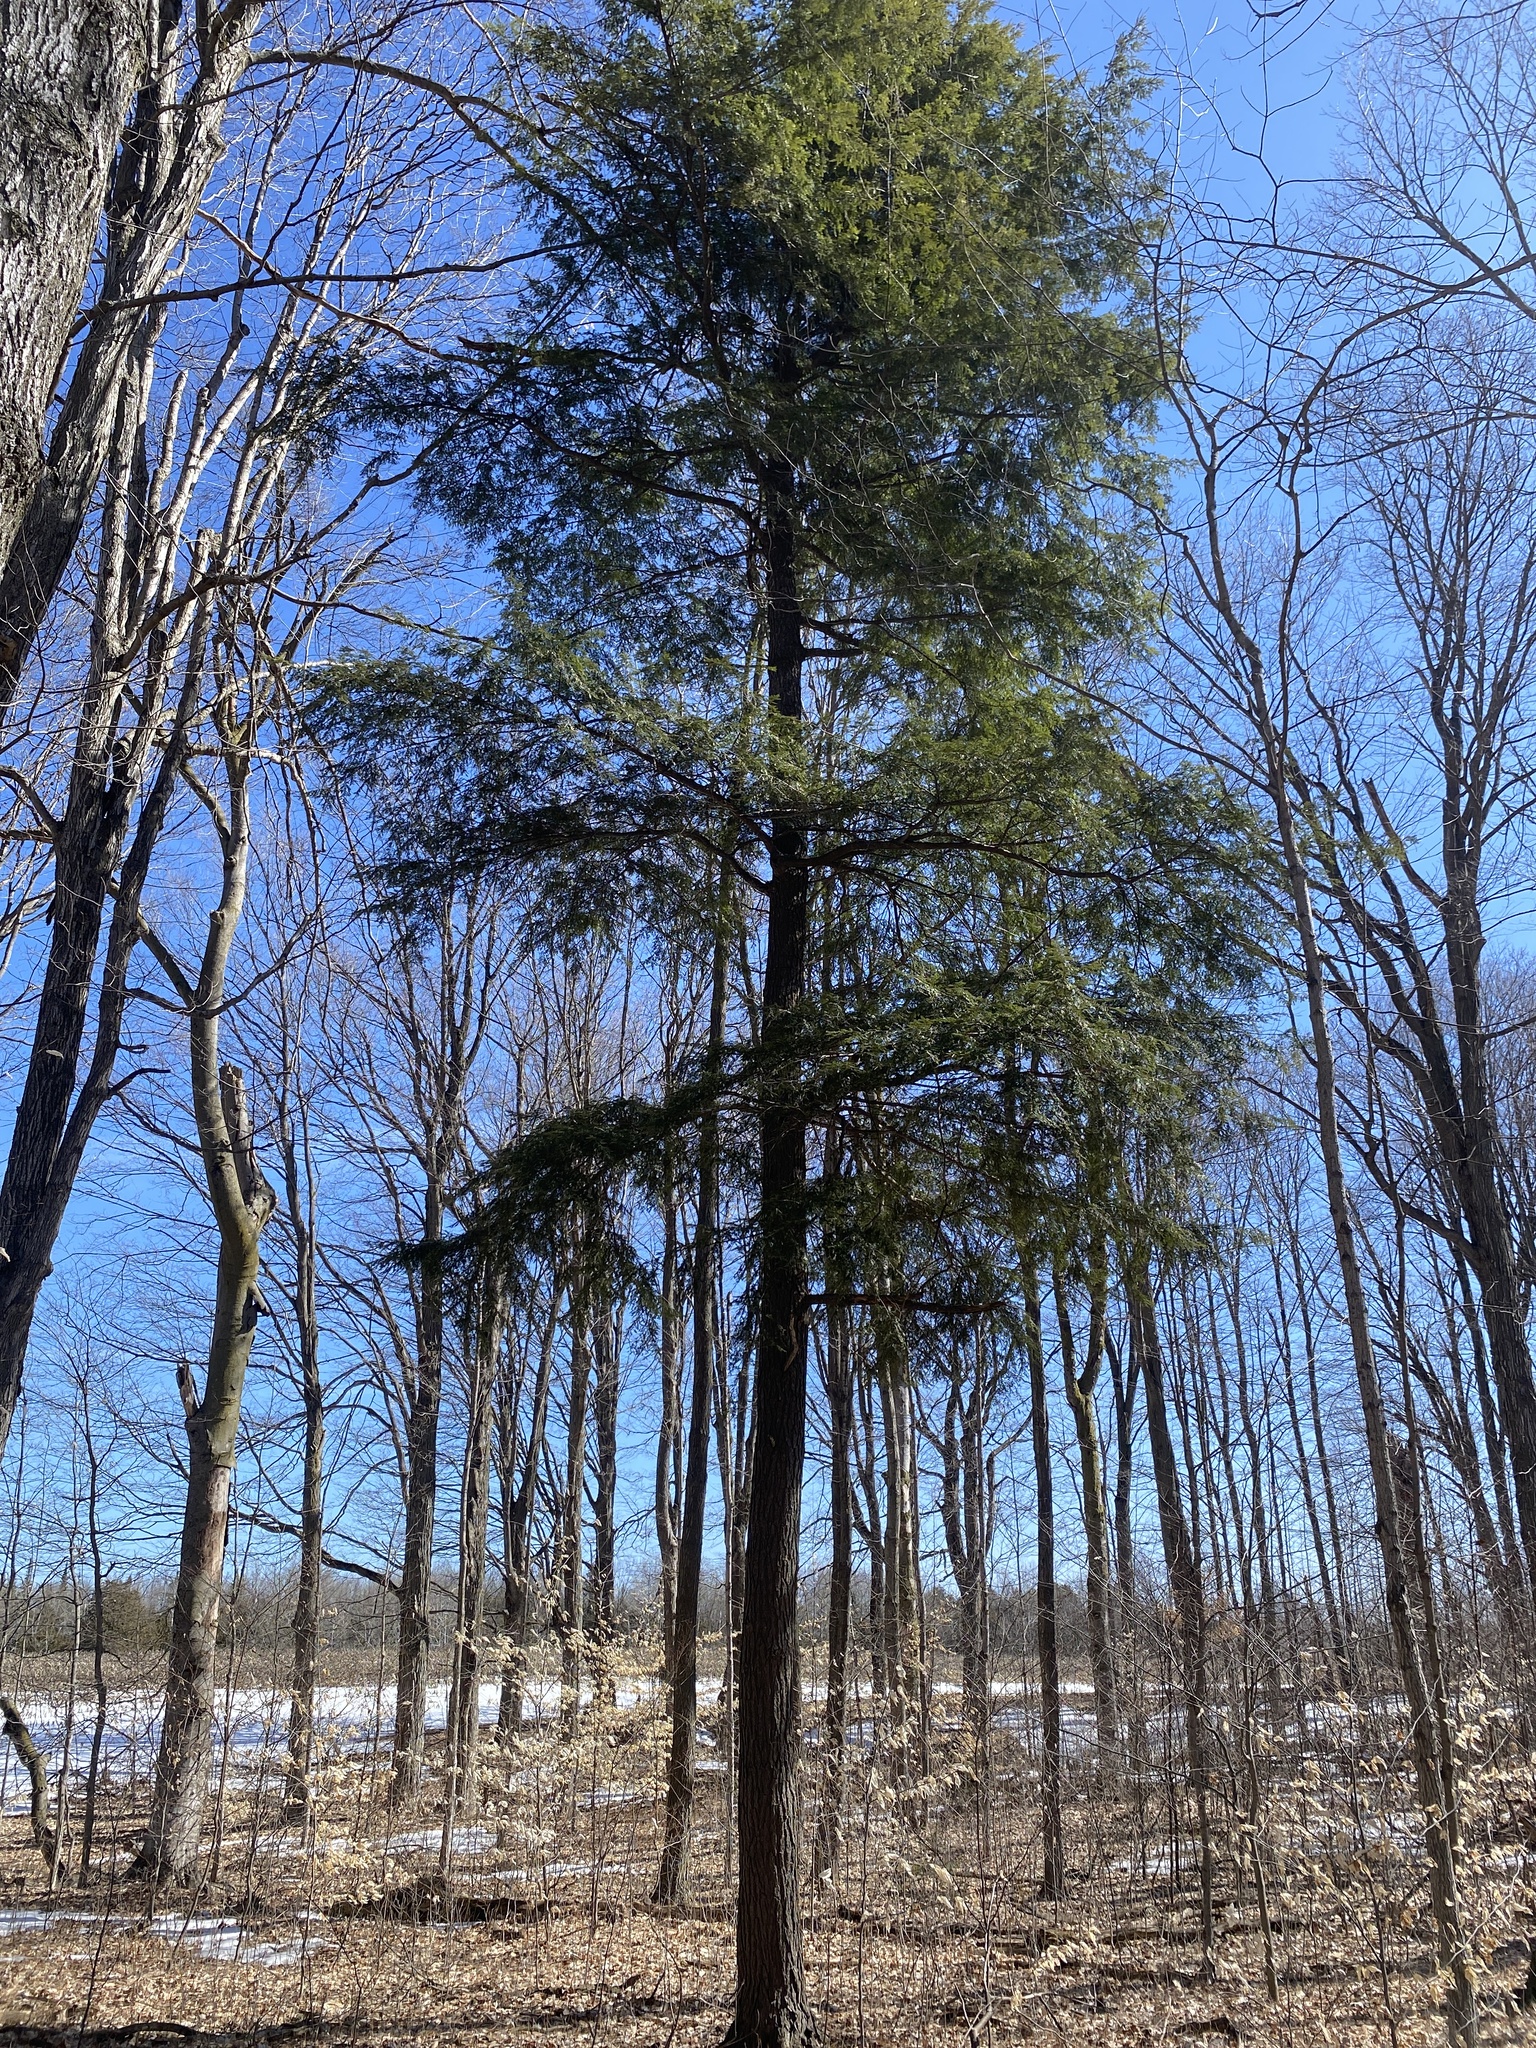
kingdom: Plantae
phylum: Tracheophyta
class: Pinopsida
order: Pinales
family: Pinaceae
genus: Tsuga
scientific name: Tsuga canadensis
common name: Eastern hemlock
